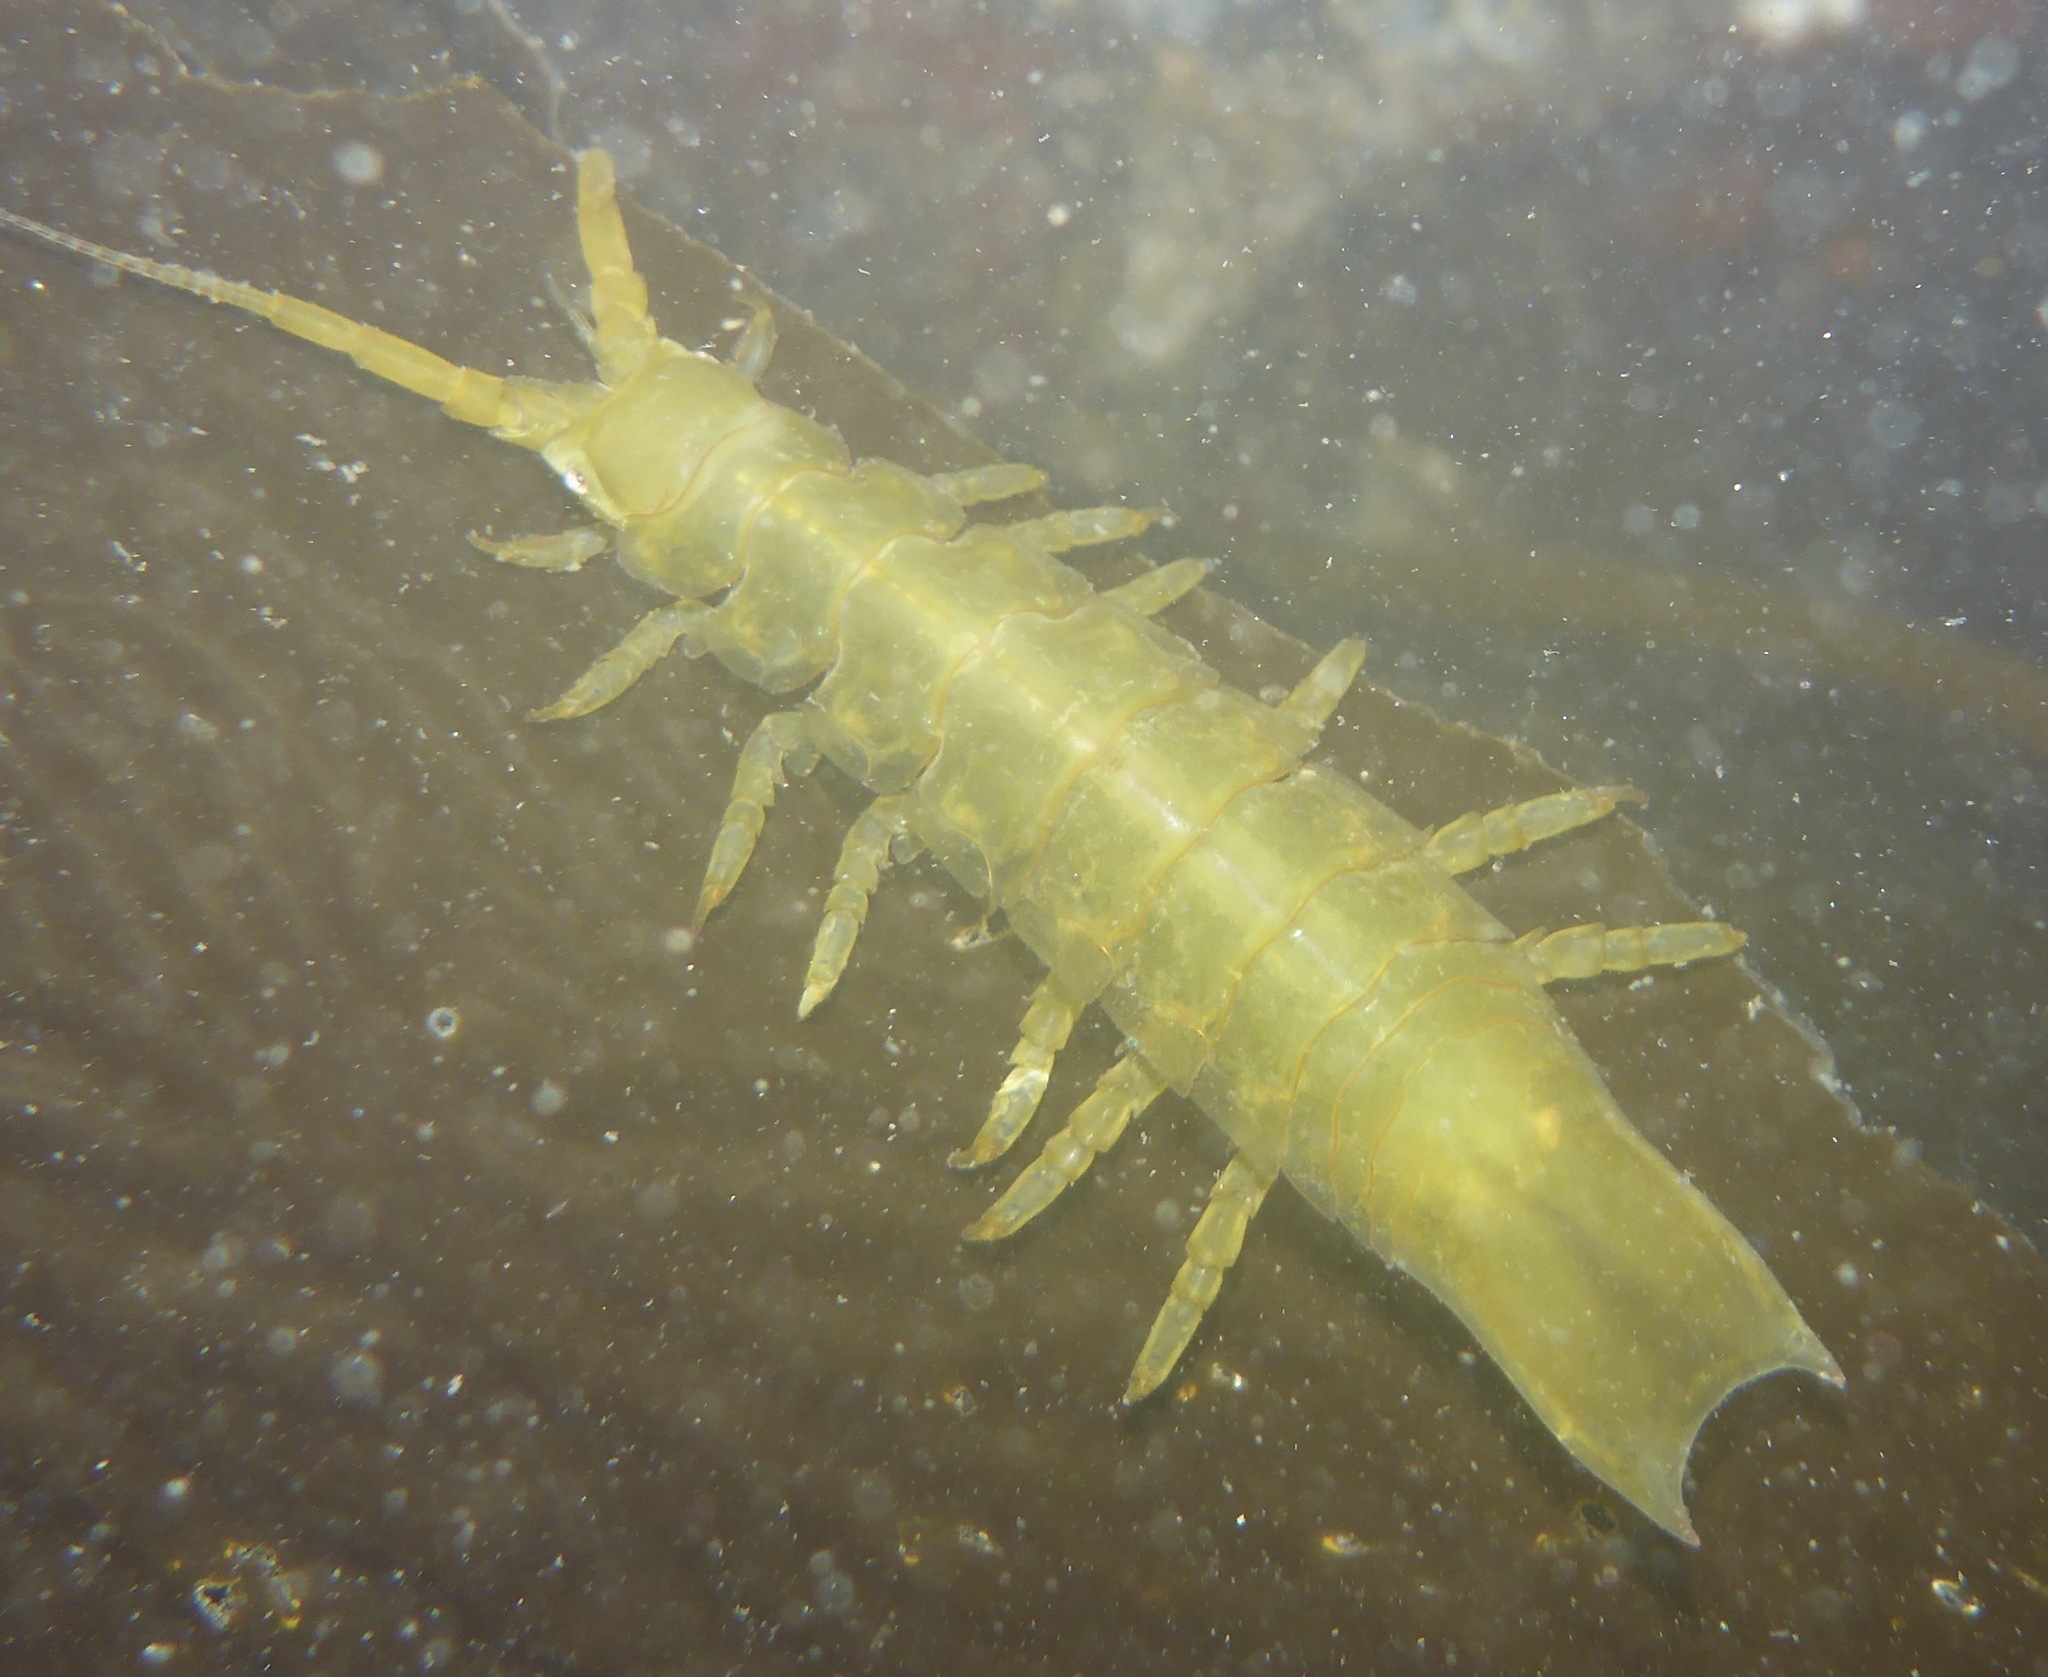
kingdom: Animalia
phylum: Arthropoda
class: Malacostraca
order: Isopoda
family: Idoteidae
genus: Pentidotea
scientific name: Pentidotea resecata
